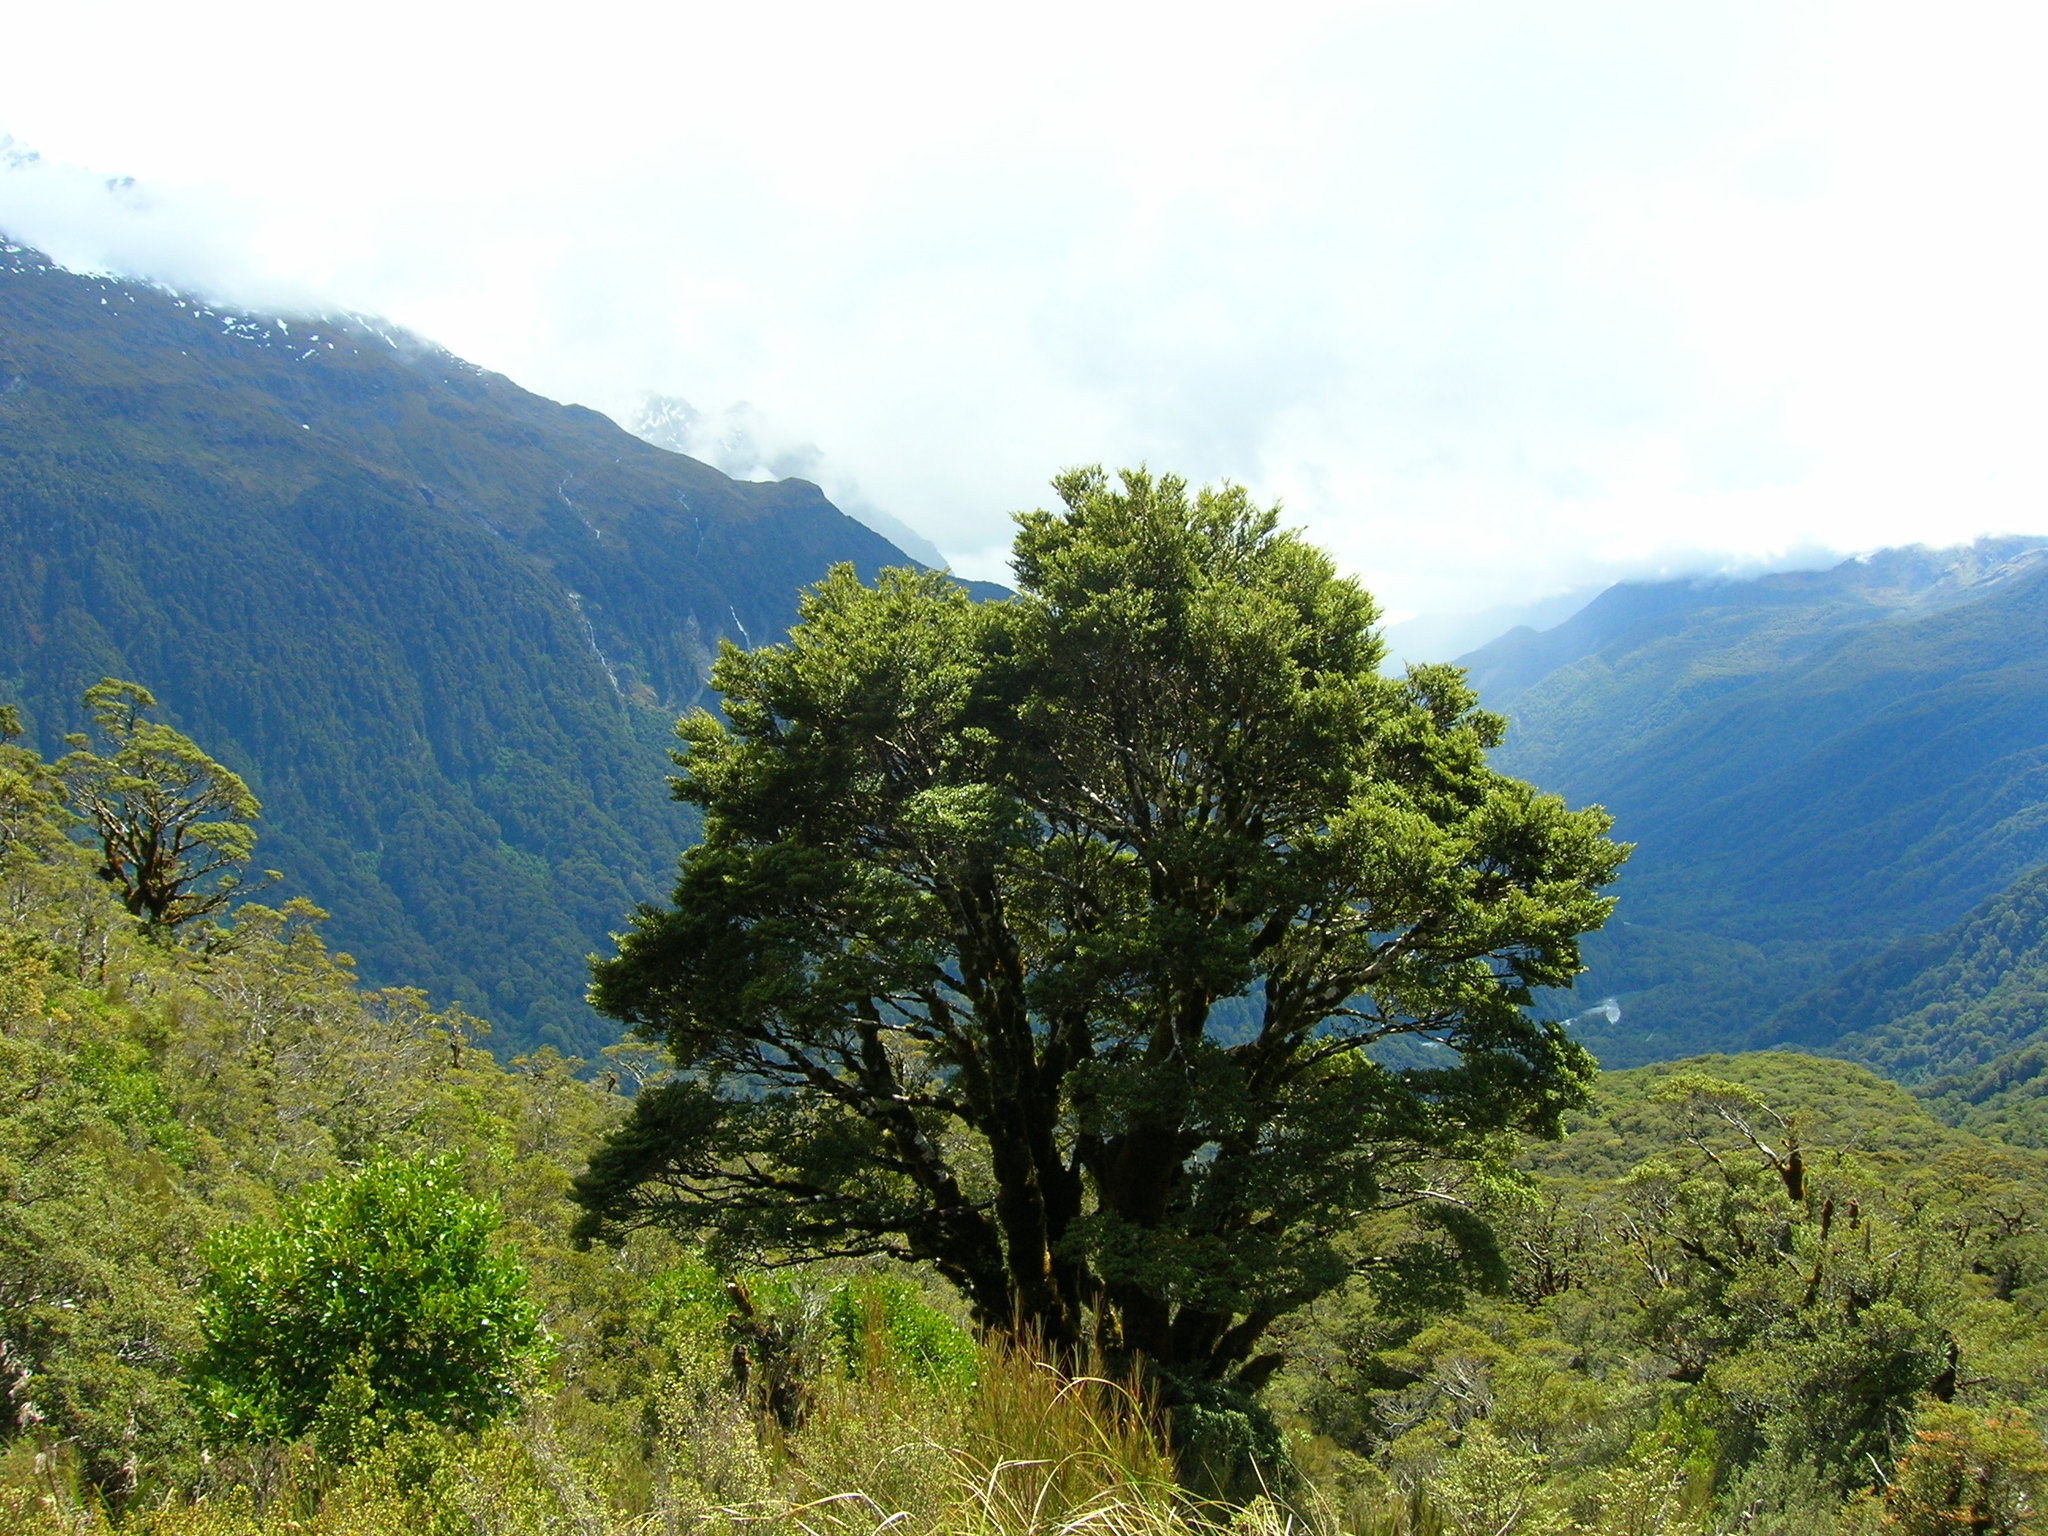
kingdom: Plantae
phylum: Tracheophyta
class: Magnoliopsida
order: Fagales
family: Nothofagaceae
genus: Nothofagus
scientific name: Nothofagus menziesii
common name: Silver beech
